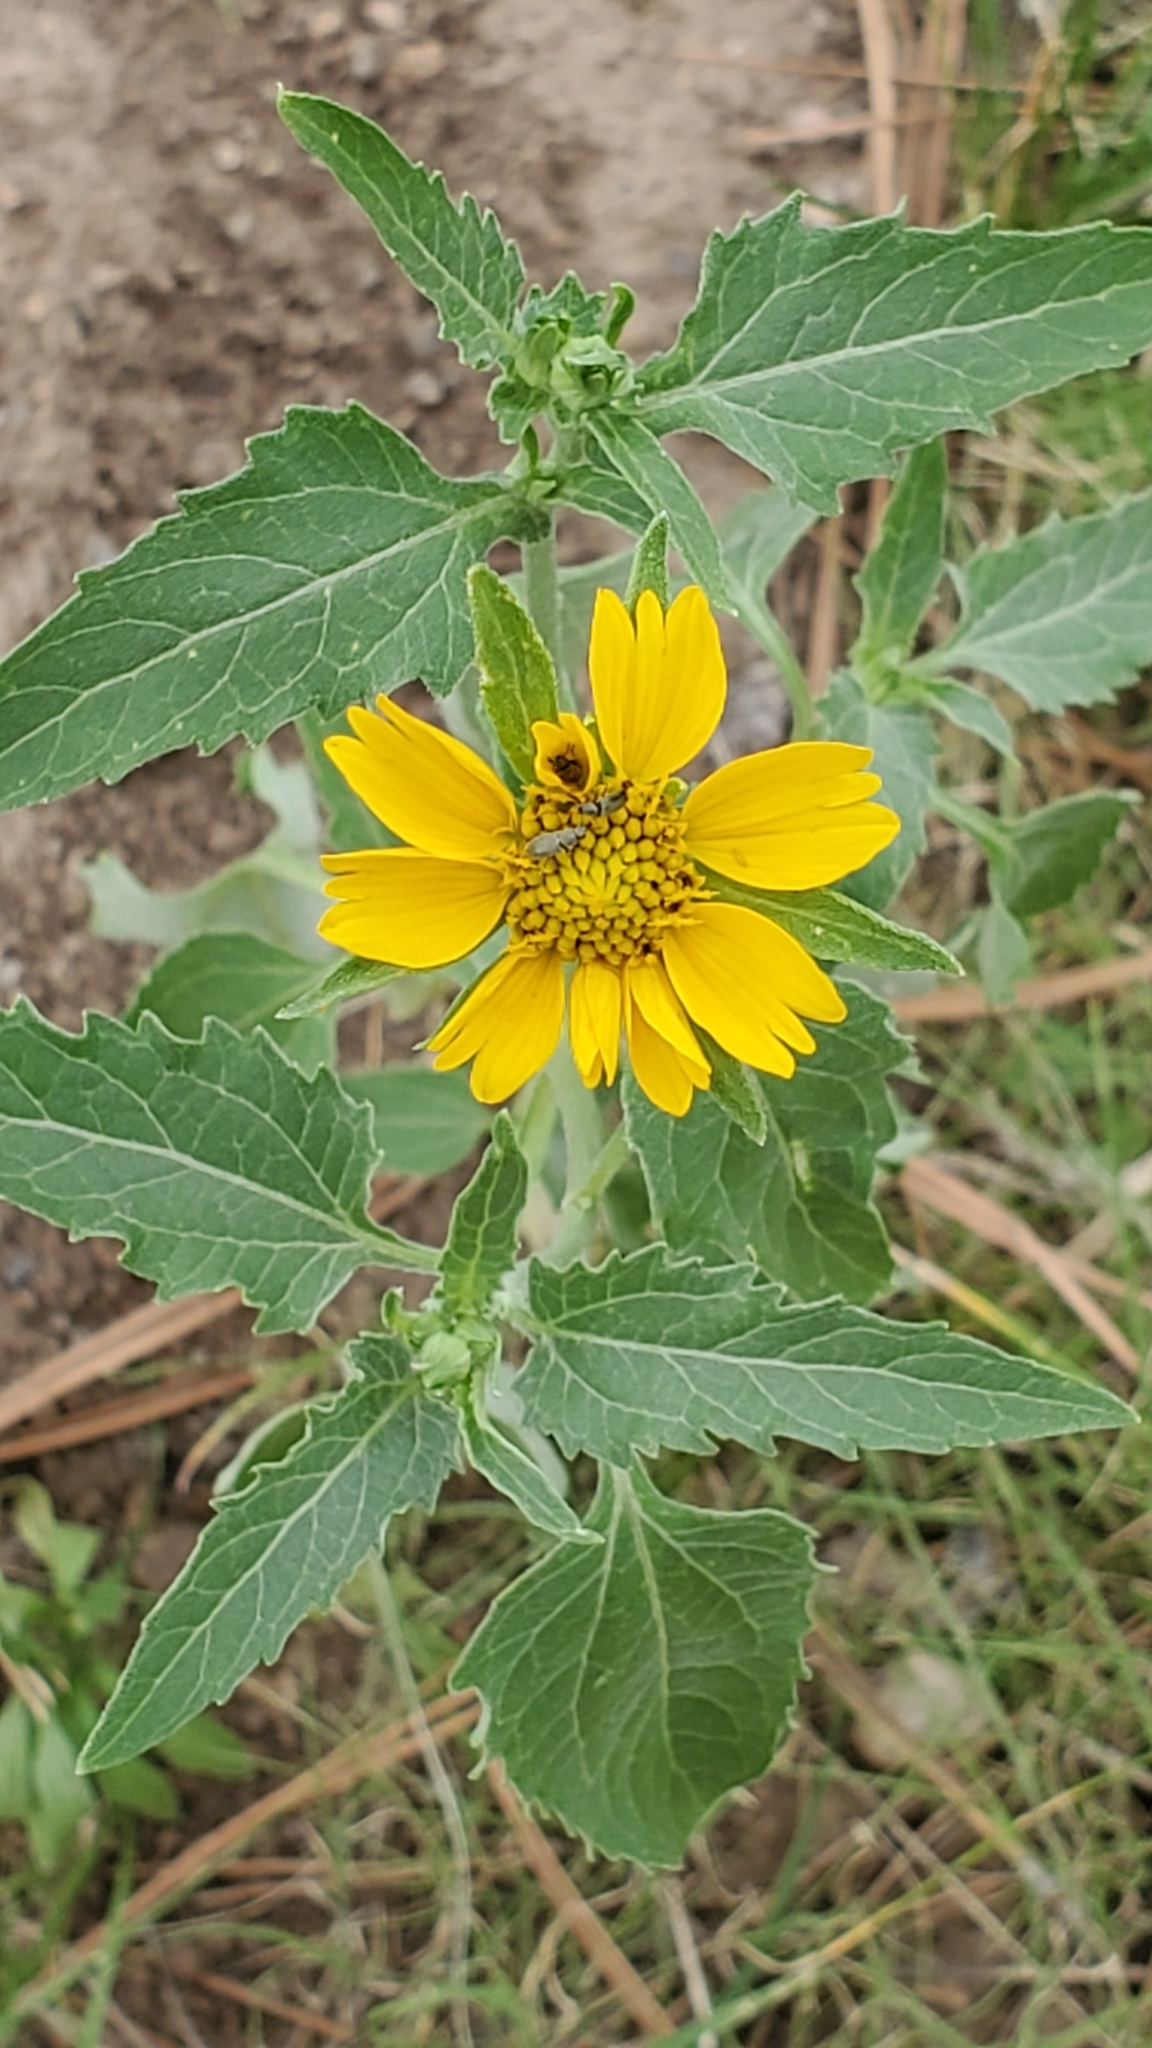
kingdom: Plantae
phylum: Tracheophyta
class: Magnoliopsida
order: Asterales
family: Asteraceae
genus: Verbesina
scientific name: Verbesina encelioides
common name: Golden crownbeard
